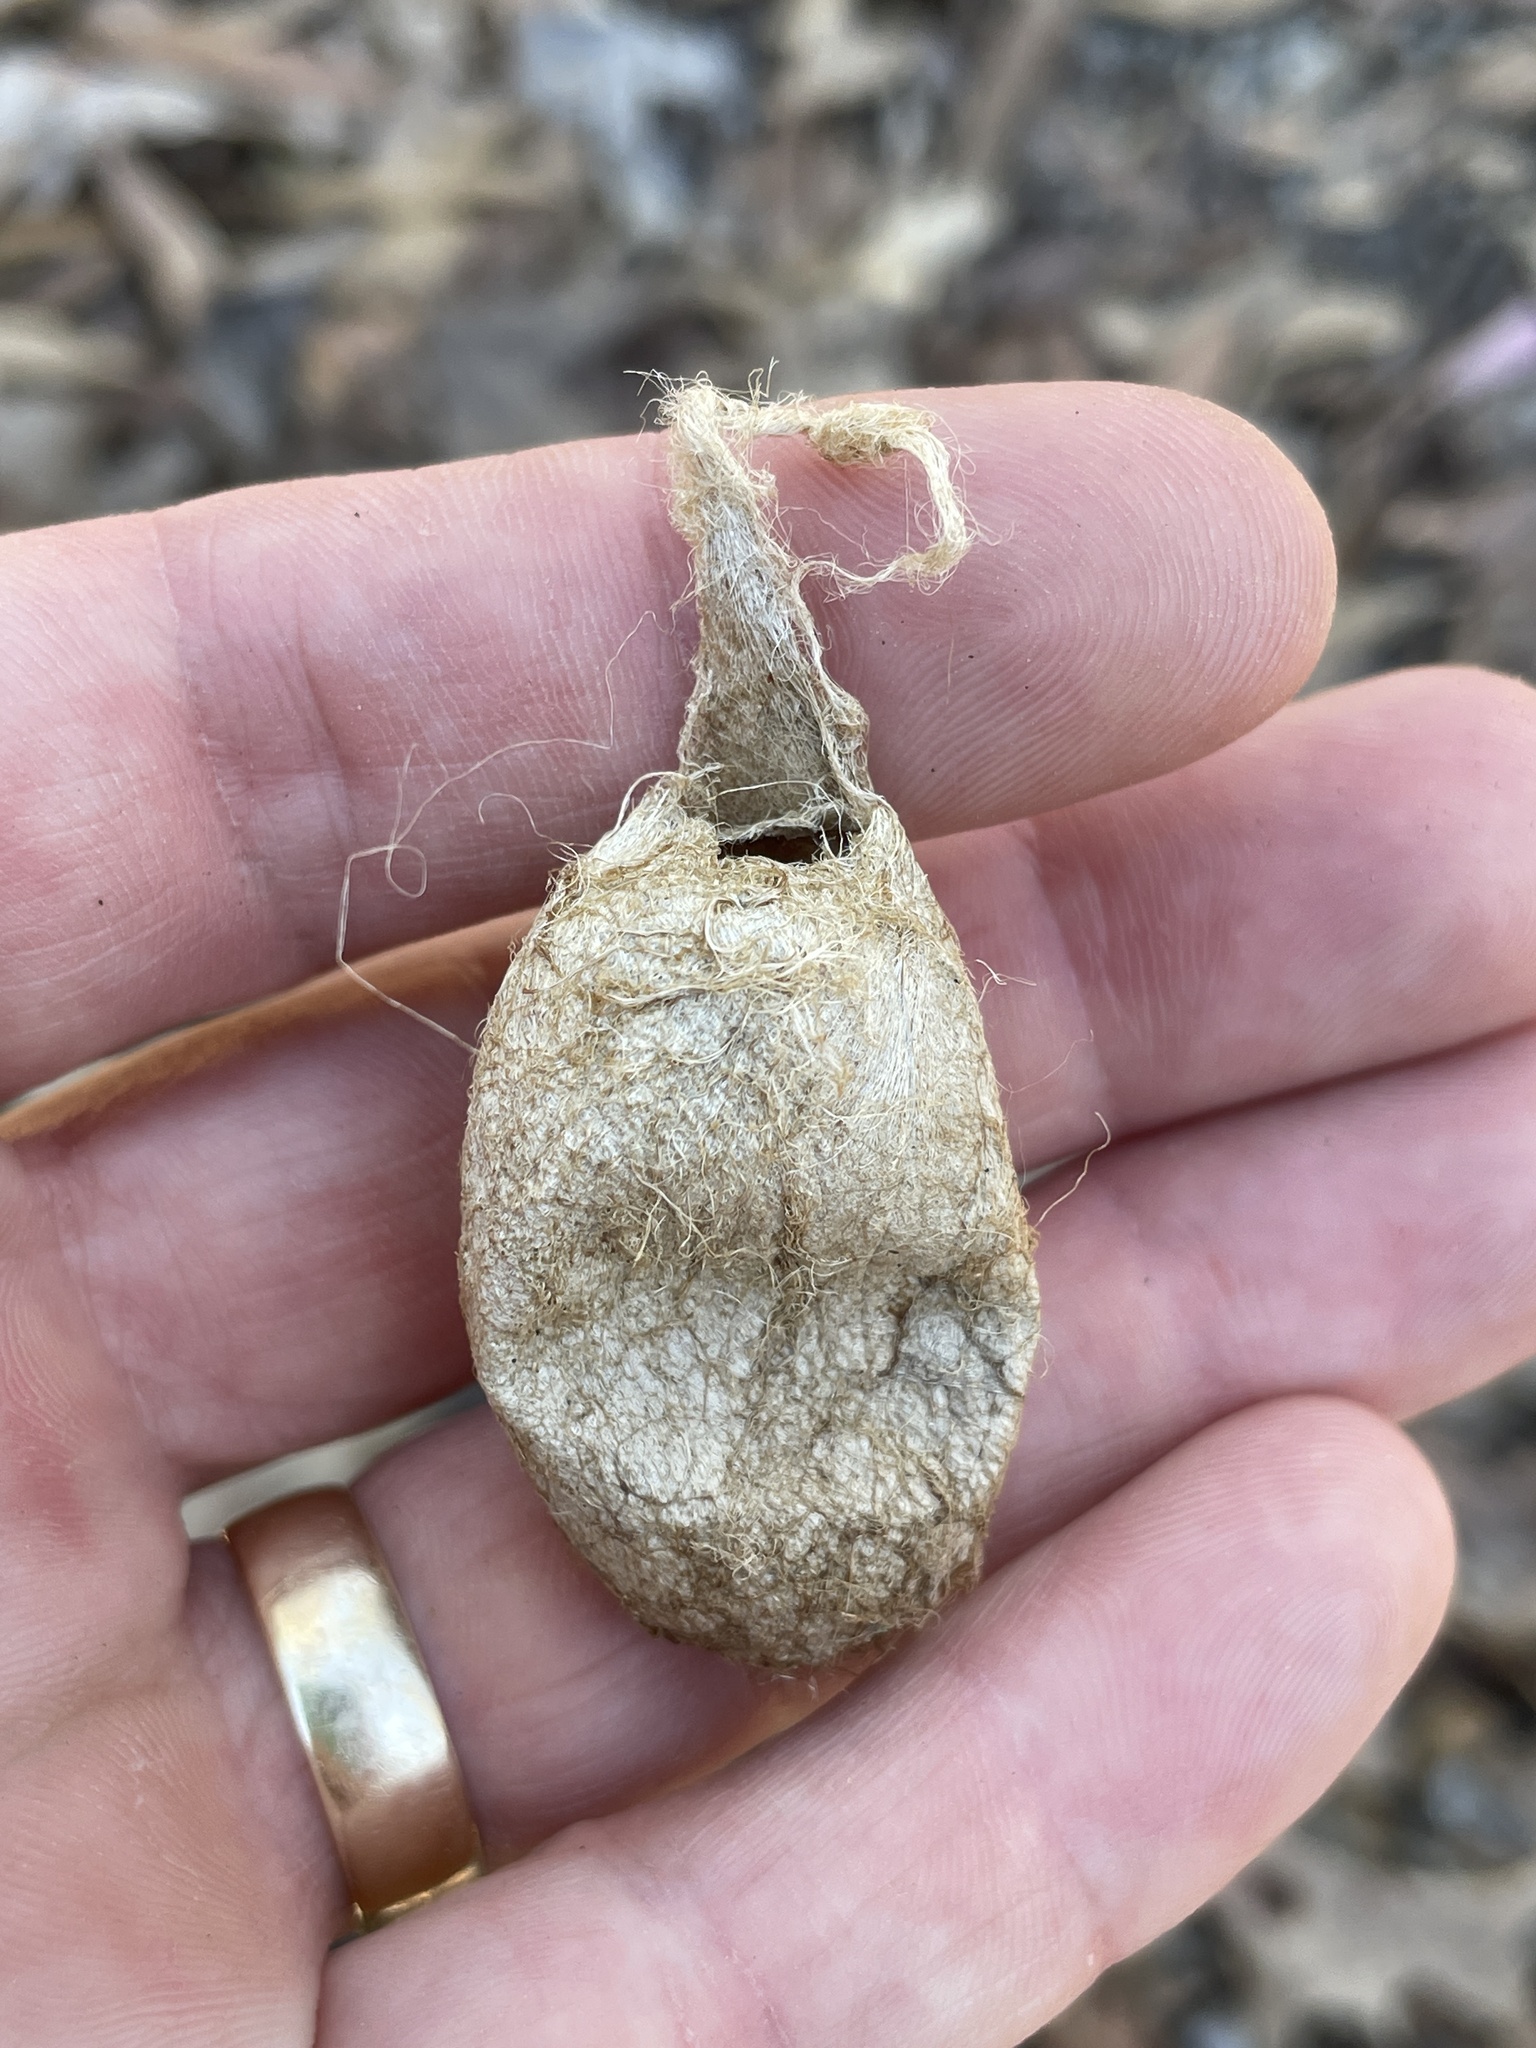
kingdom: Animalia
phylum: Arthropoda
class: Insecta
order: Lepidoptera
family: Saturniidae
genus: Antheraea
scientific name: Antheraea polyphemus
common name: Polyphemus moth
